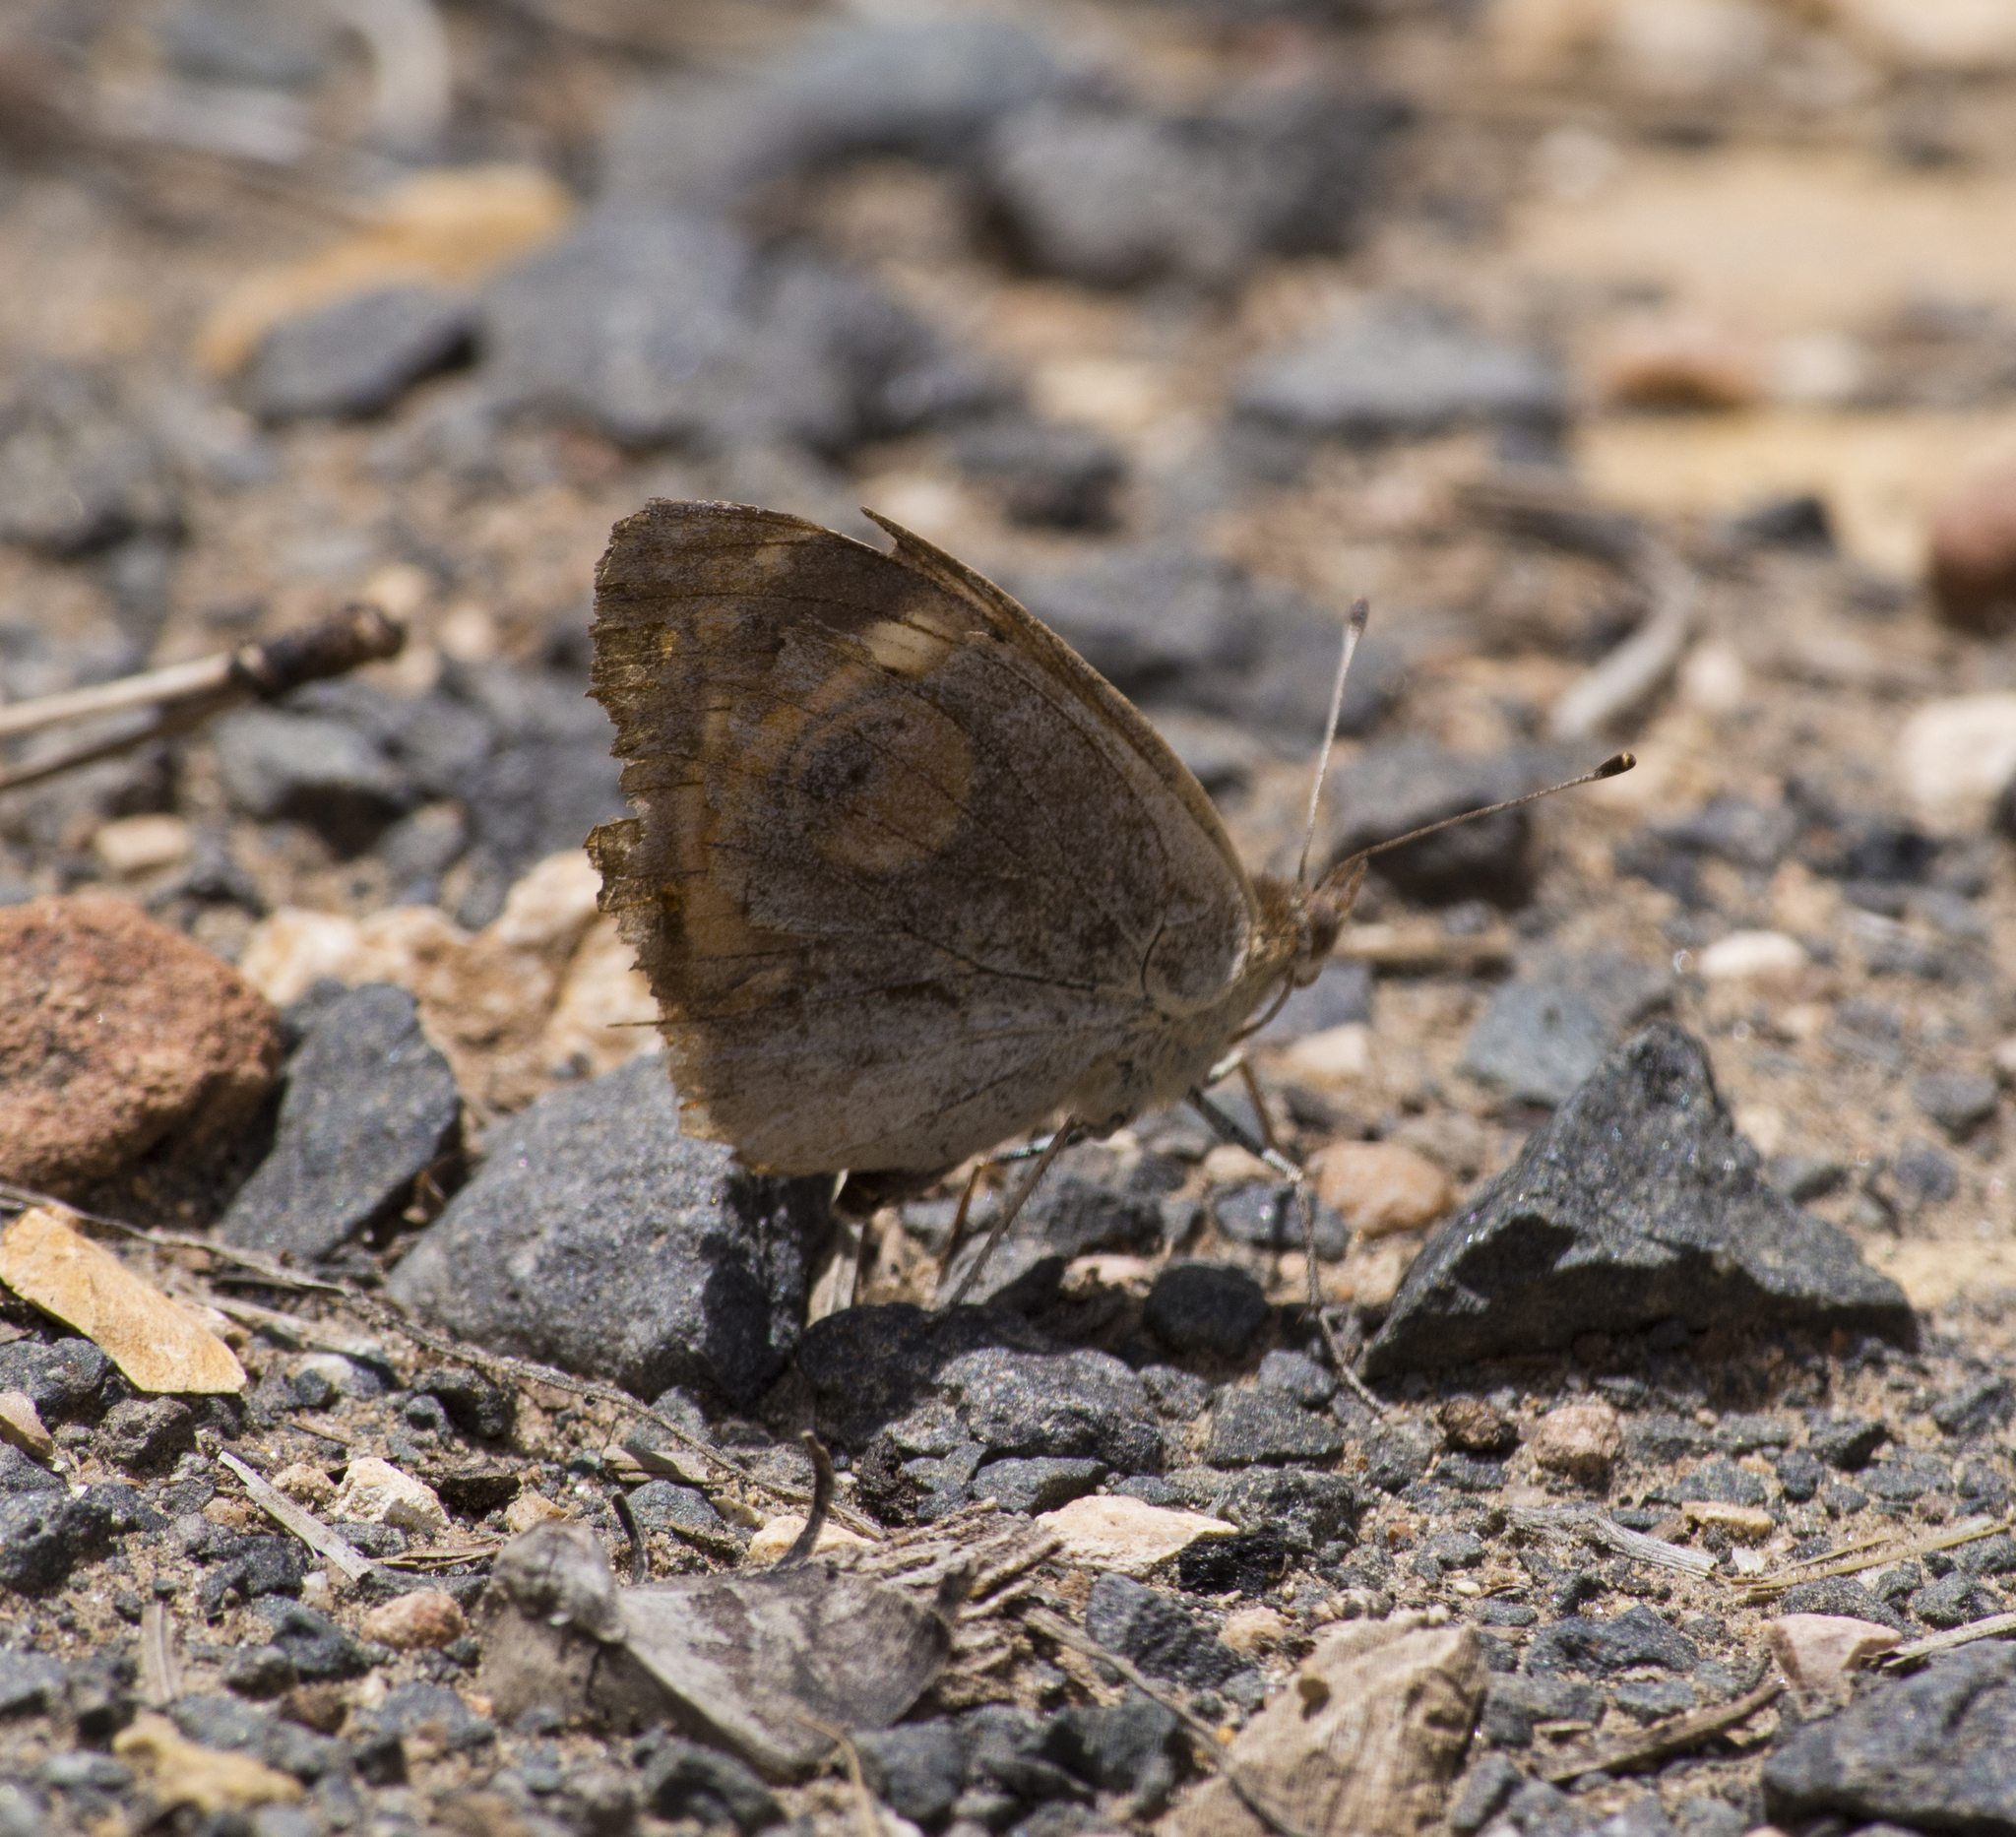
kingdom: Animalia
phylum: Arthropoda
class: Insecta
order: Lepidoptera
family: Nymphalidae
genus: Junonia
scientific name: Junonia grisea
